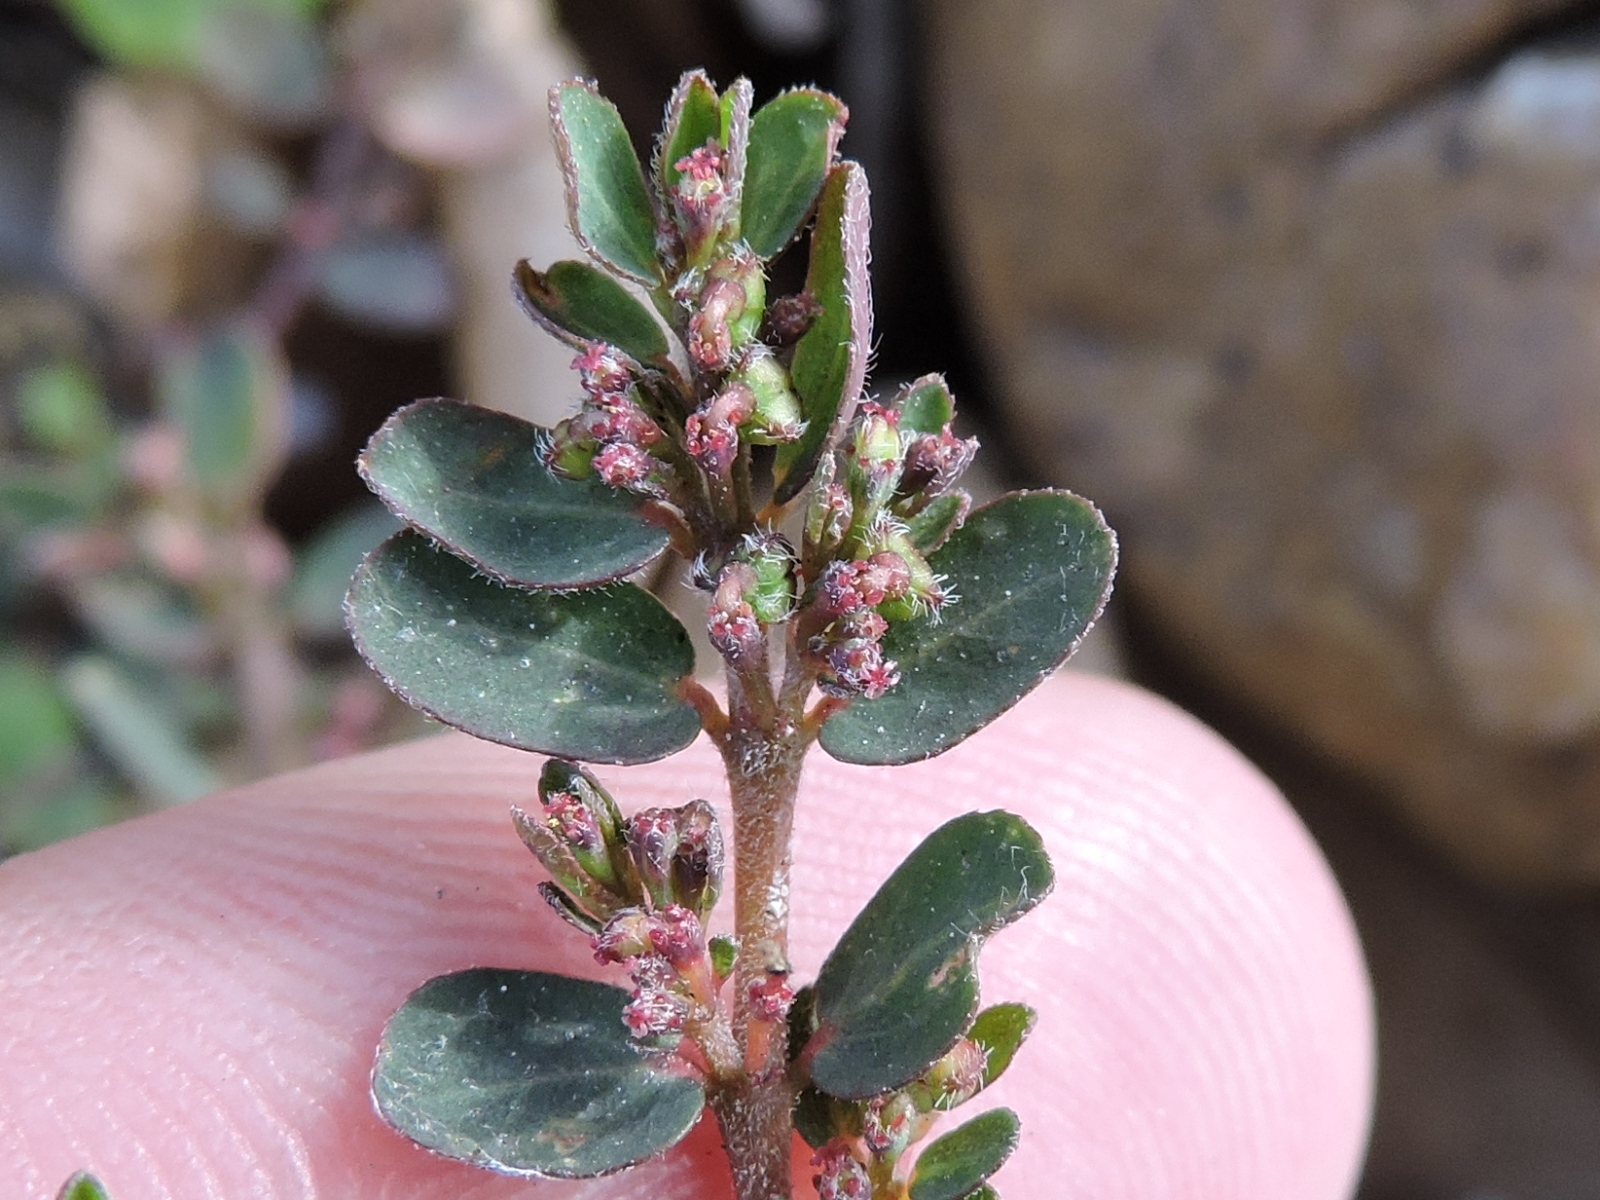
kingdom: Plantae
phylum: Tracheophyta
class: Magnoliopsida
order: Malpighiales
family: Euphorbiaceae
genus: Euphorbia
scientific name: Euphorbia prostrata
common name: Prostrate sandmat
